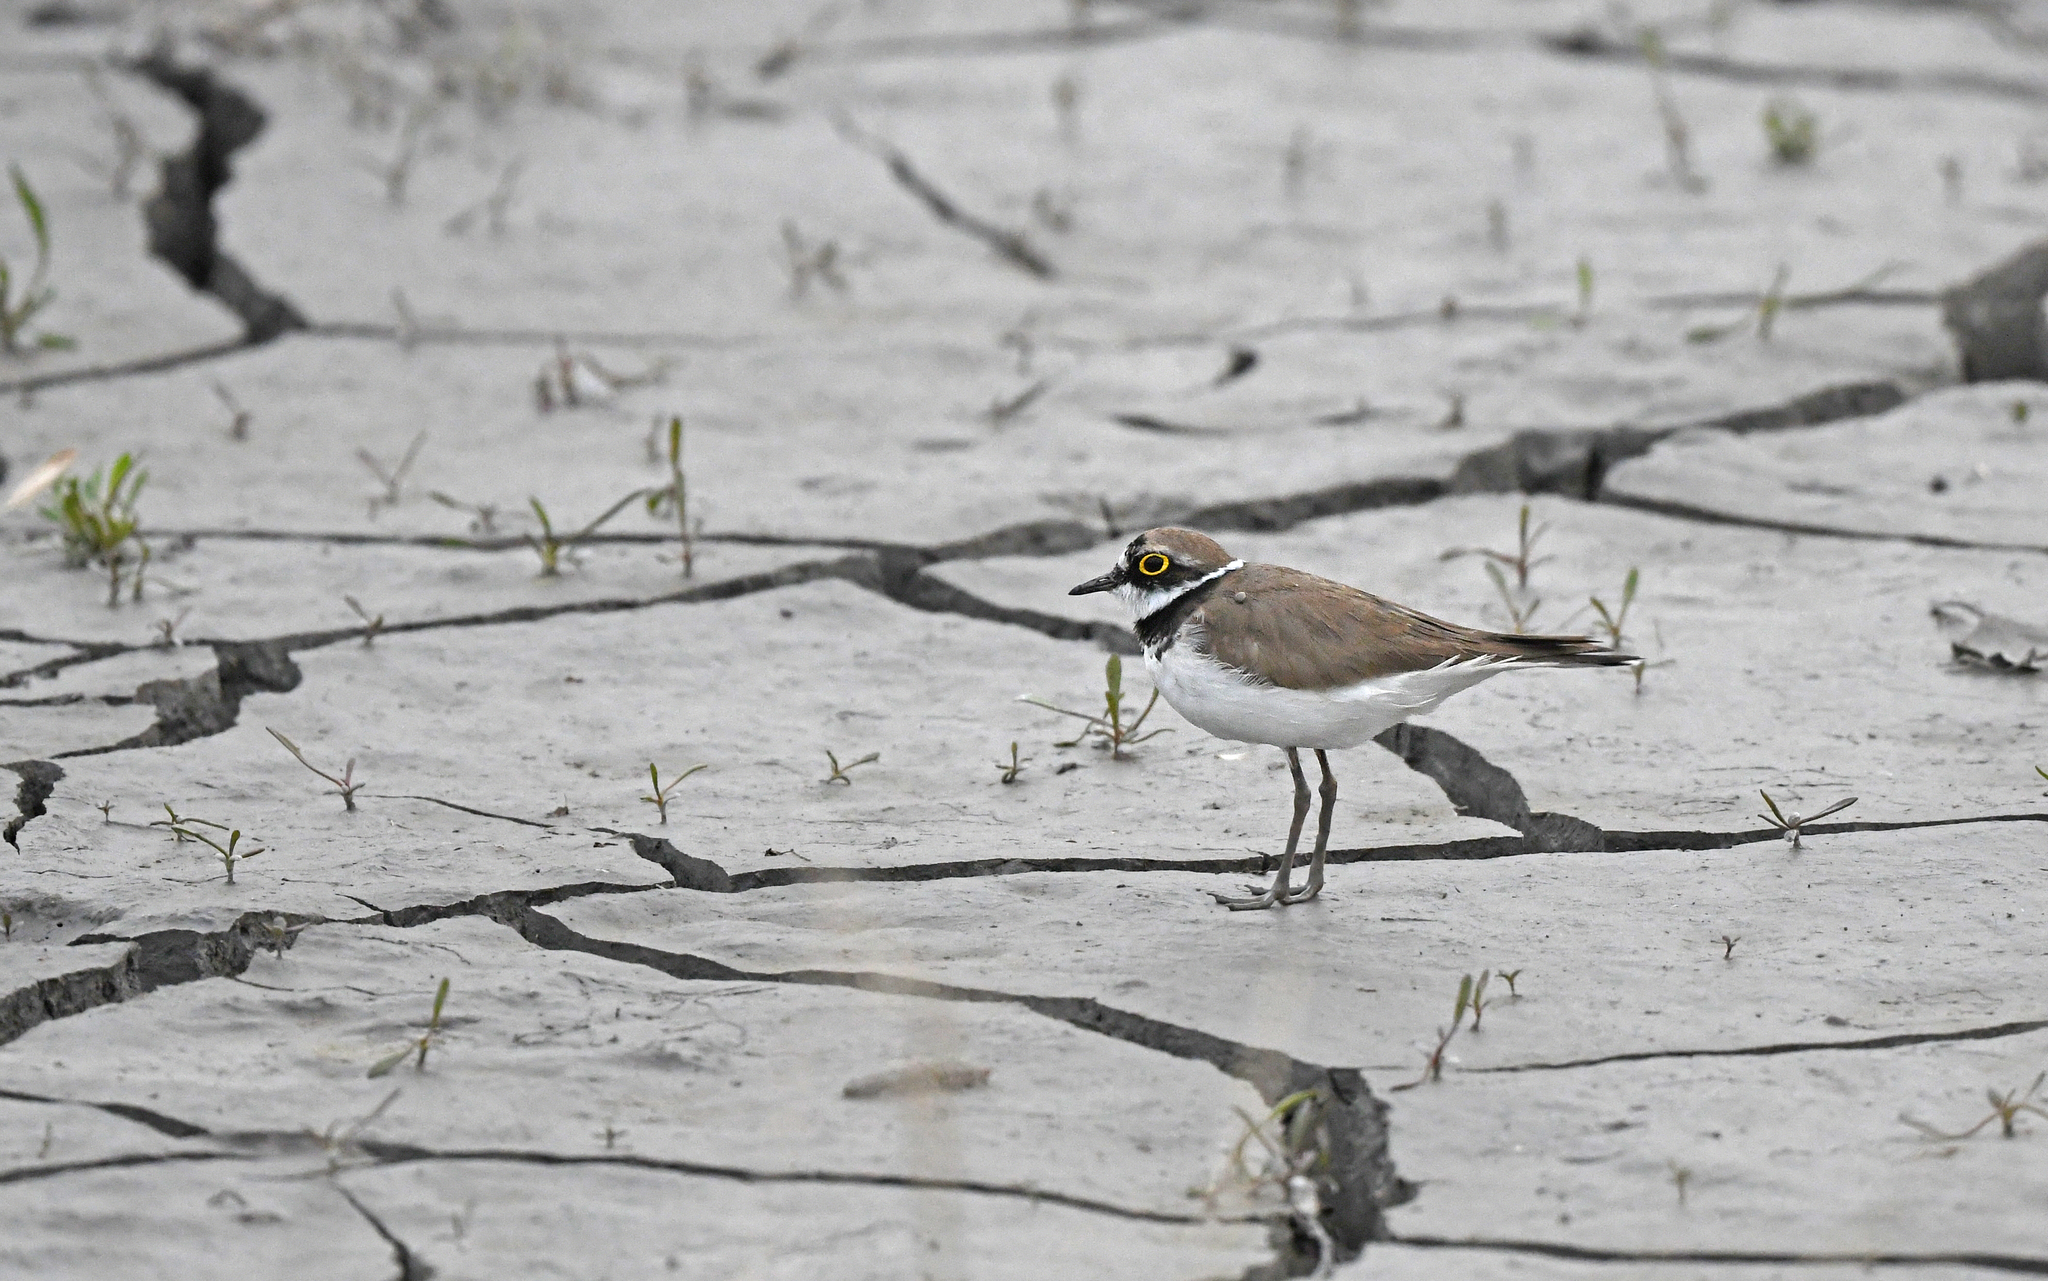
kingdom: Animalia
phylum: Chordata
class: Aves
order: Charadriiformes
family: Charadriidae
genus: Charadrius
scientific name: Charadrius dubius
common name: Little ringed plover
